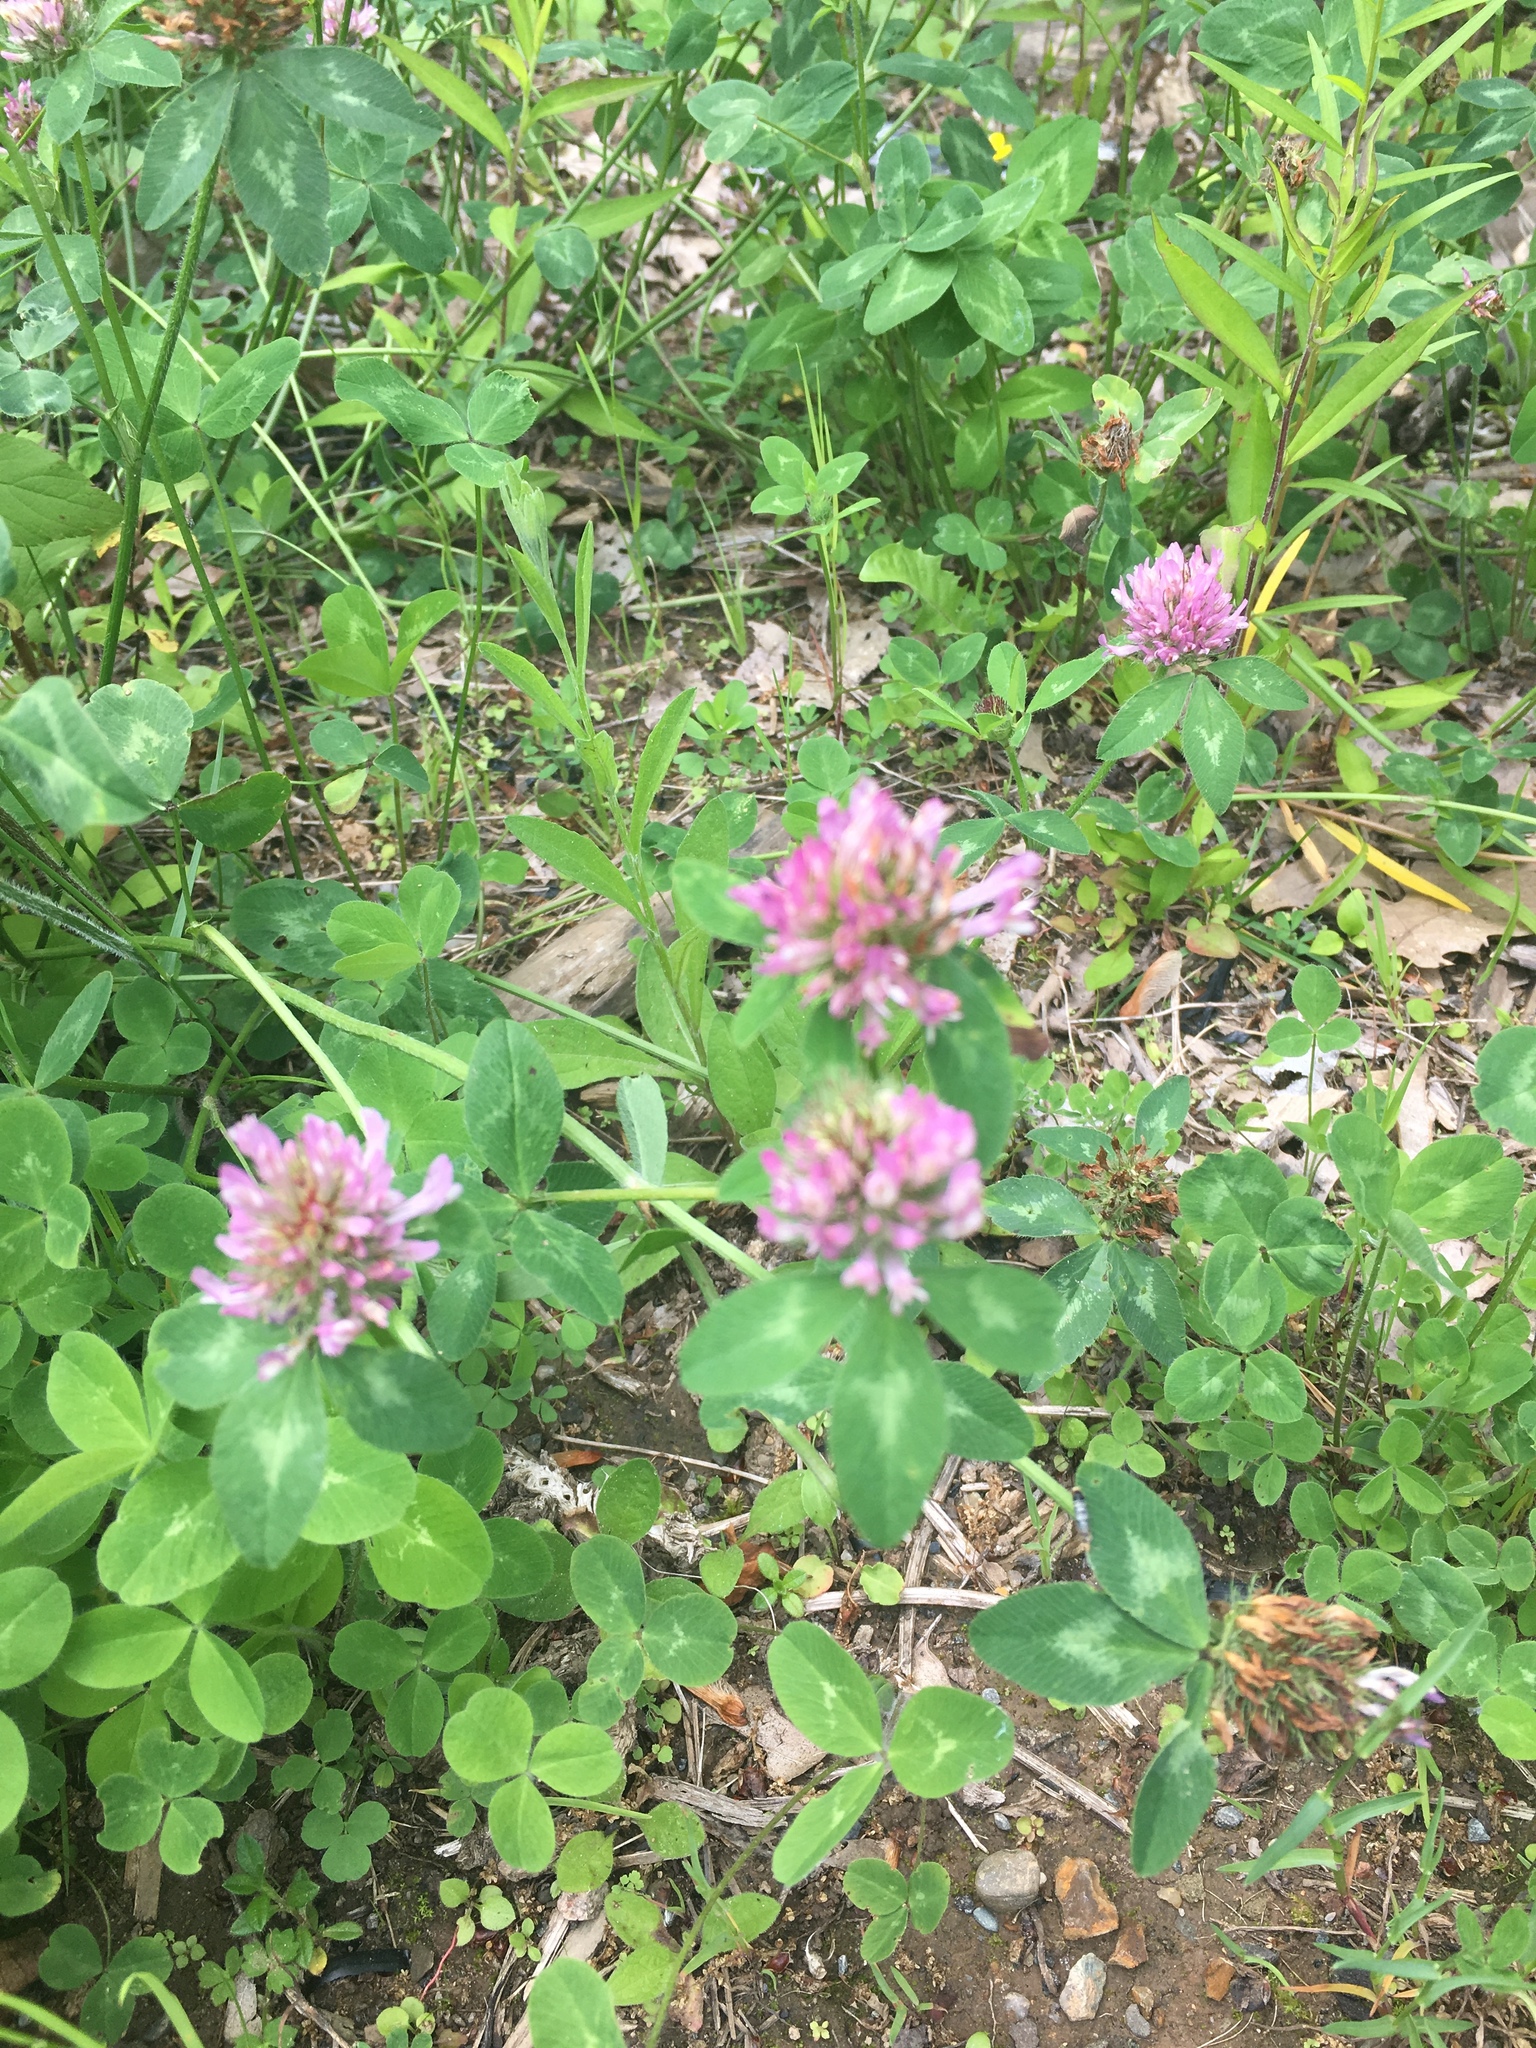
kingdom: Plantae
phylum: Tracheophyta
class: Magnoliopsida
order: Fabales
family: Fabaceae
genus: Trifolium
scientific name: Trifolium pratense
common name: Red clover
